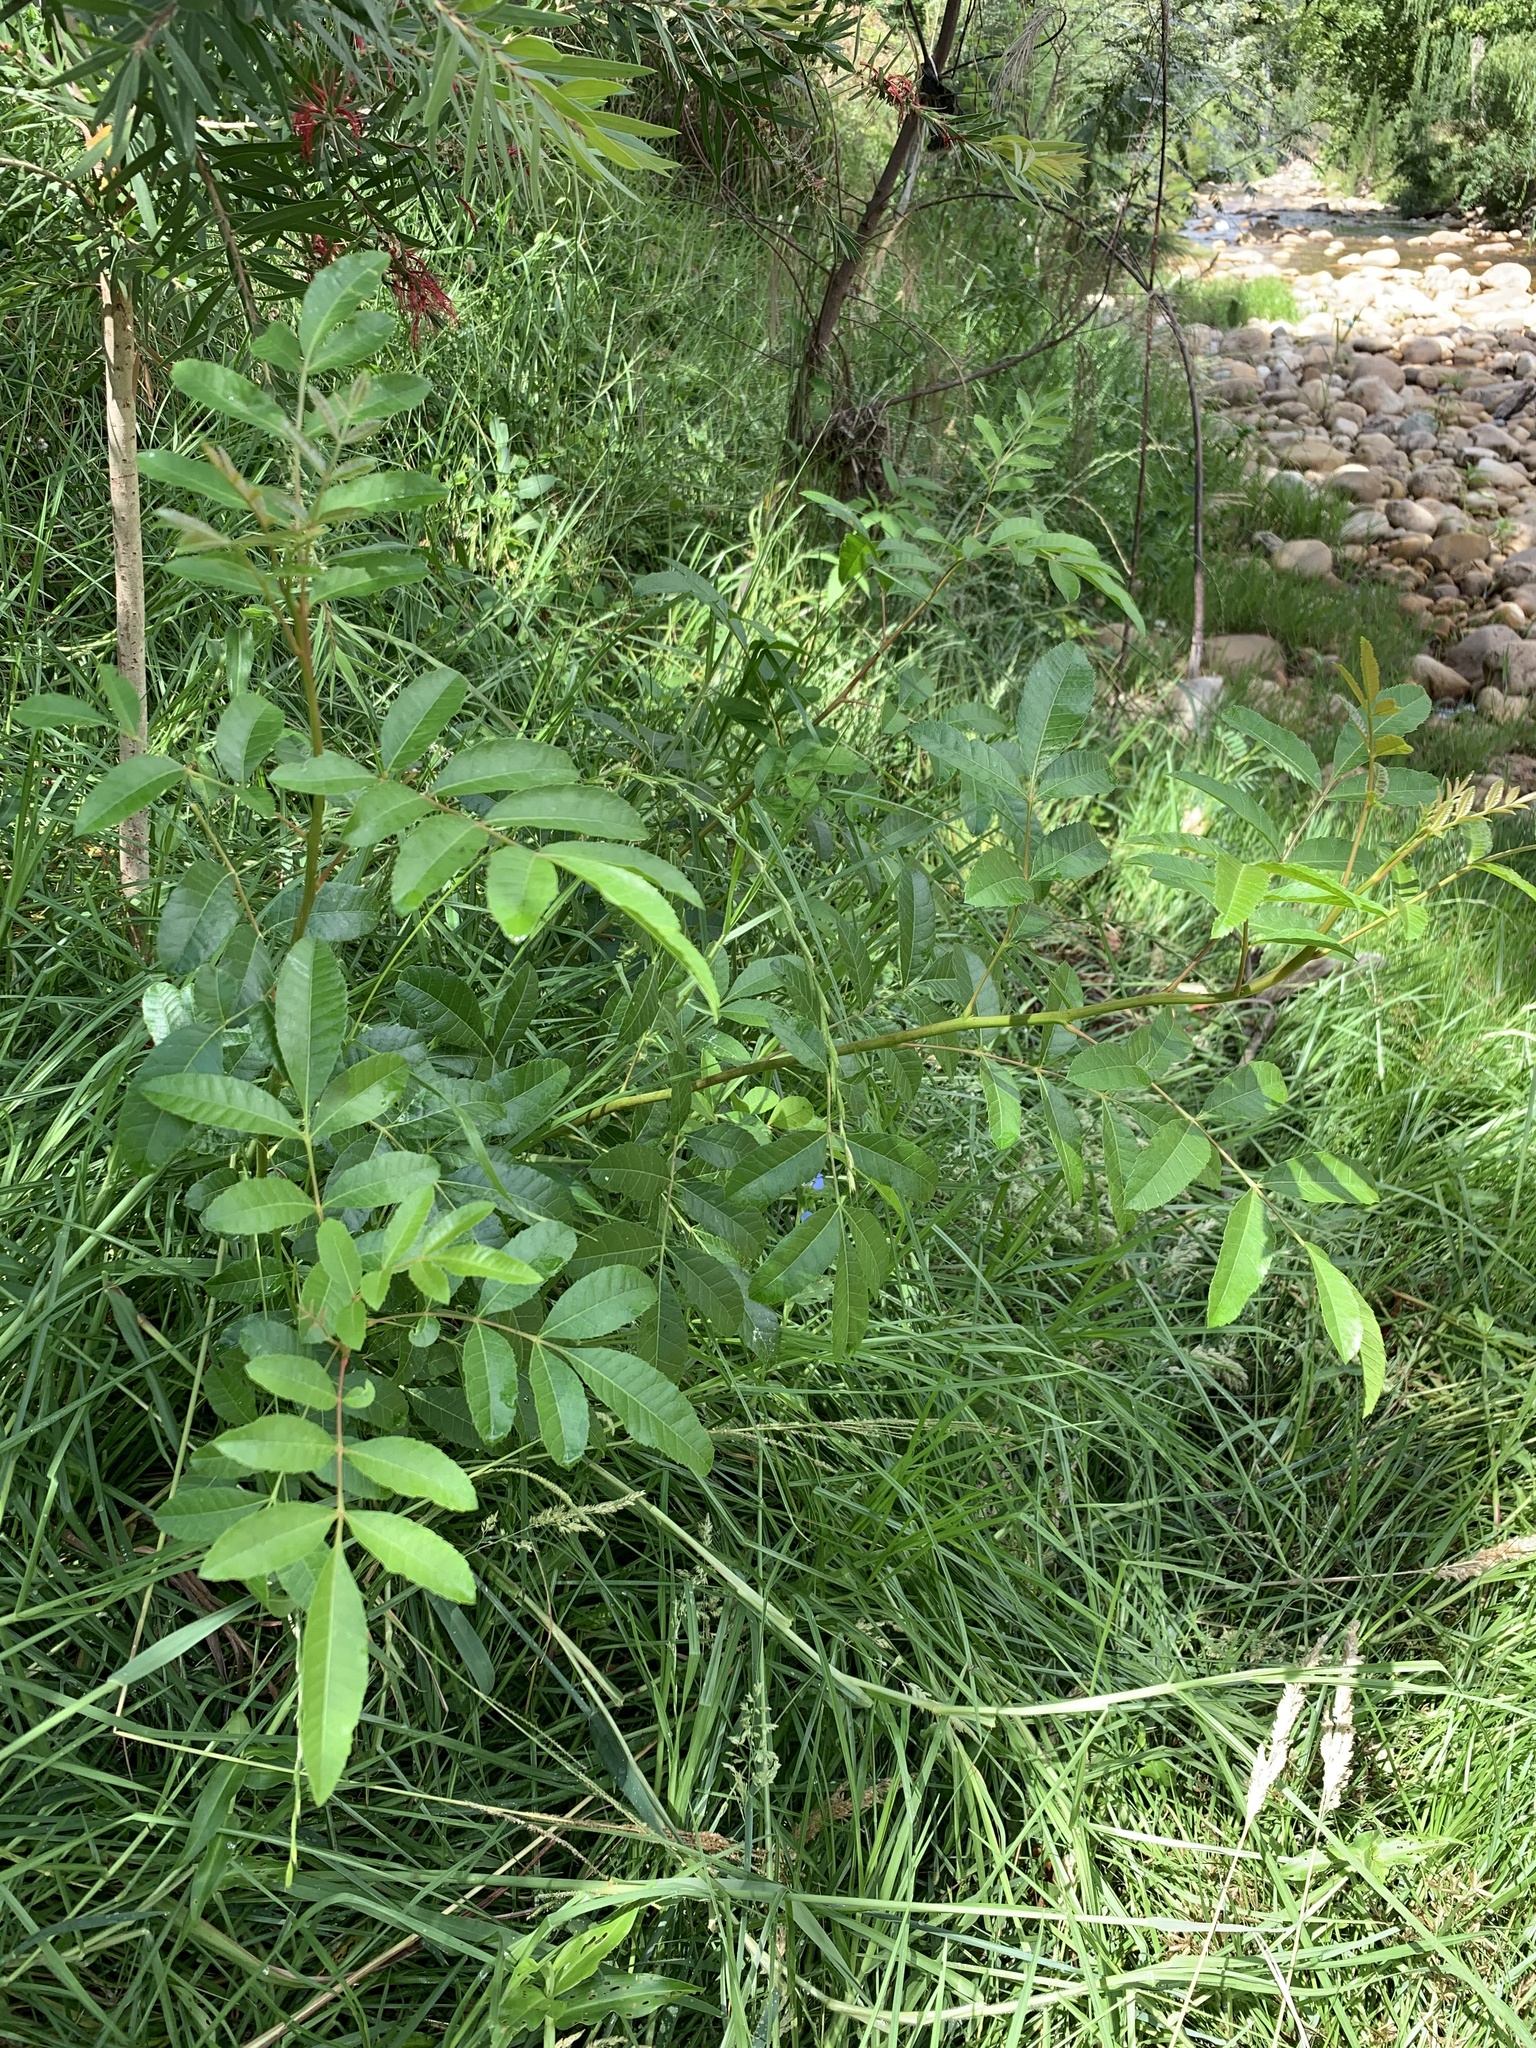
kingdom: Plantae
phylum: Tracheophyta
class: Magnoliopsida
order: Sapindales
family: Anacardiaceae
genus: Schinus
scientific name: Schinus terebinthifolia
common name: Brazilian peppertree
